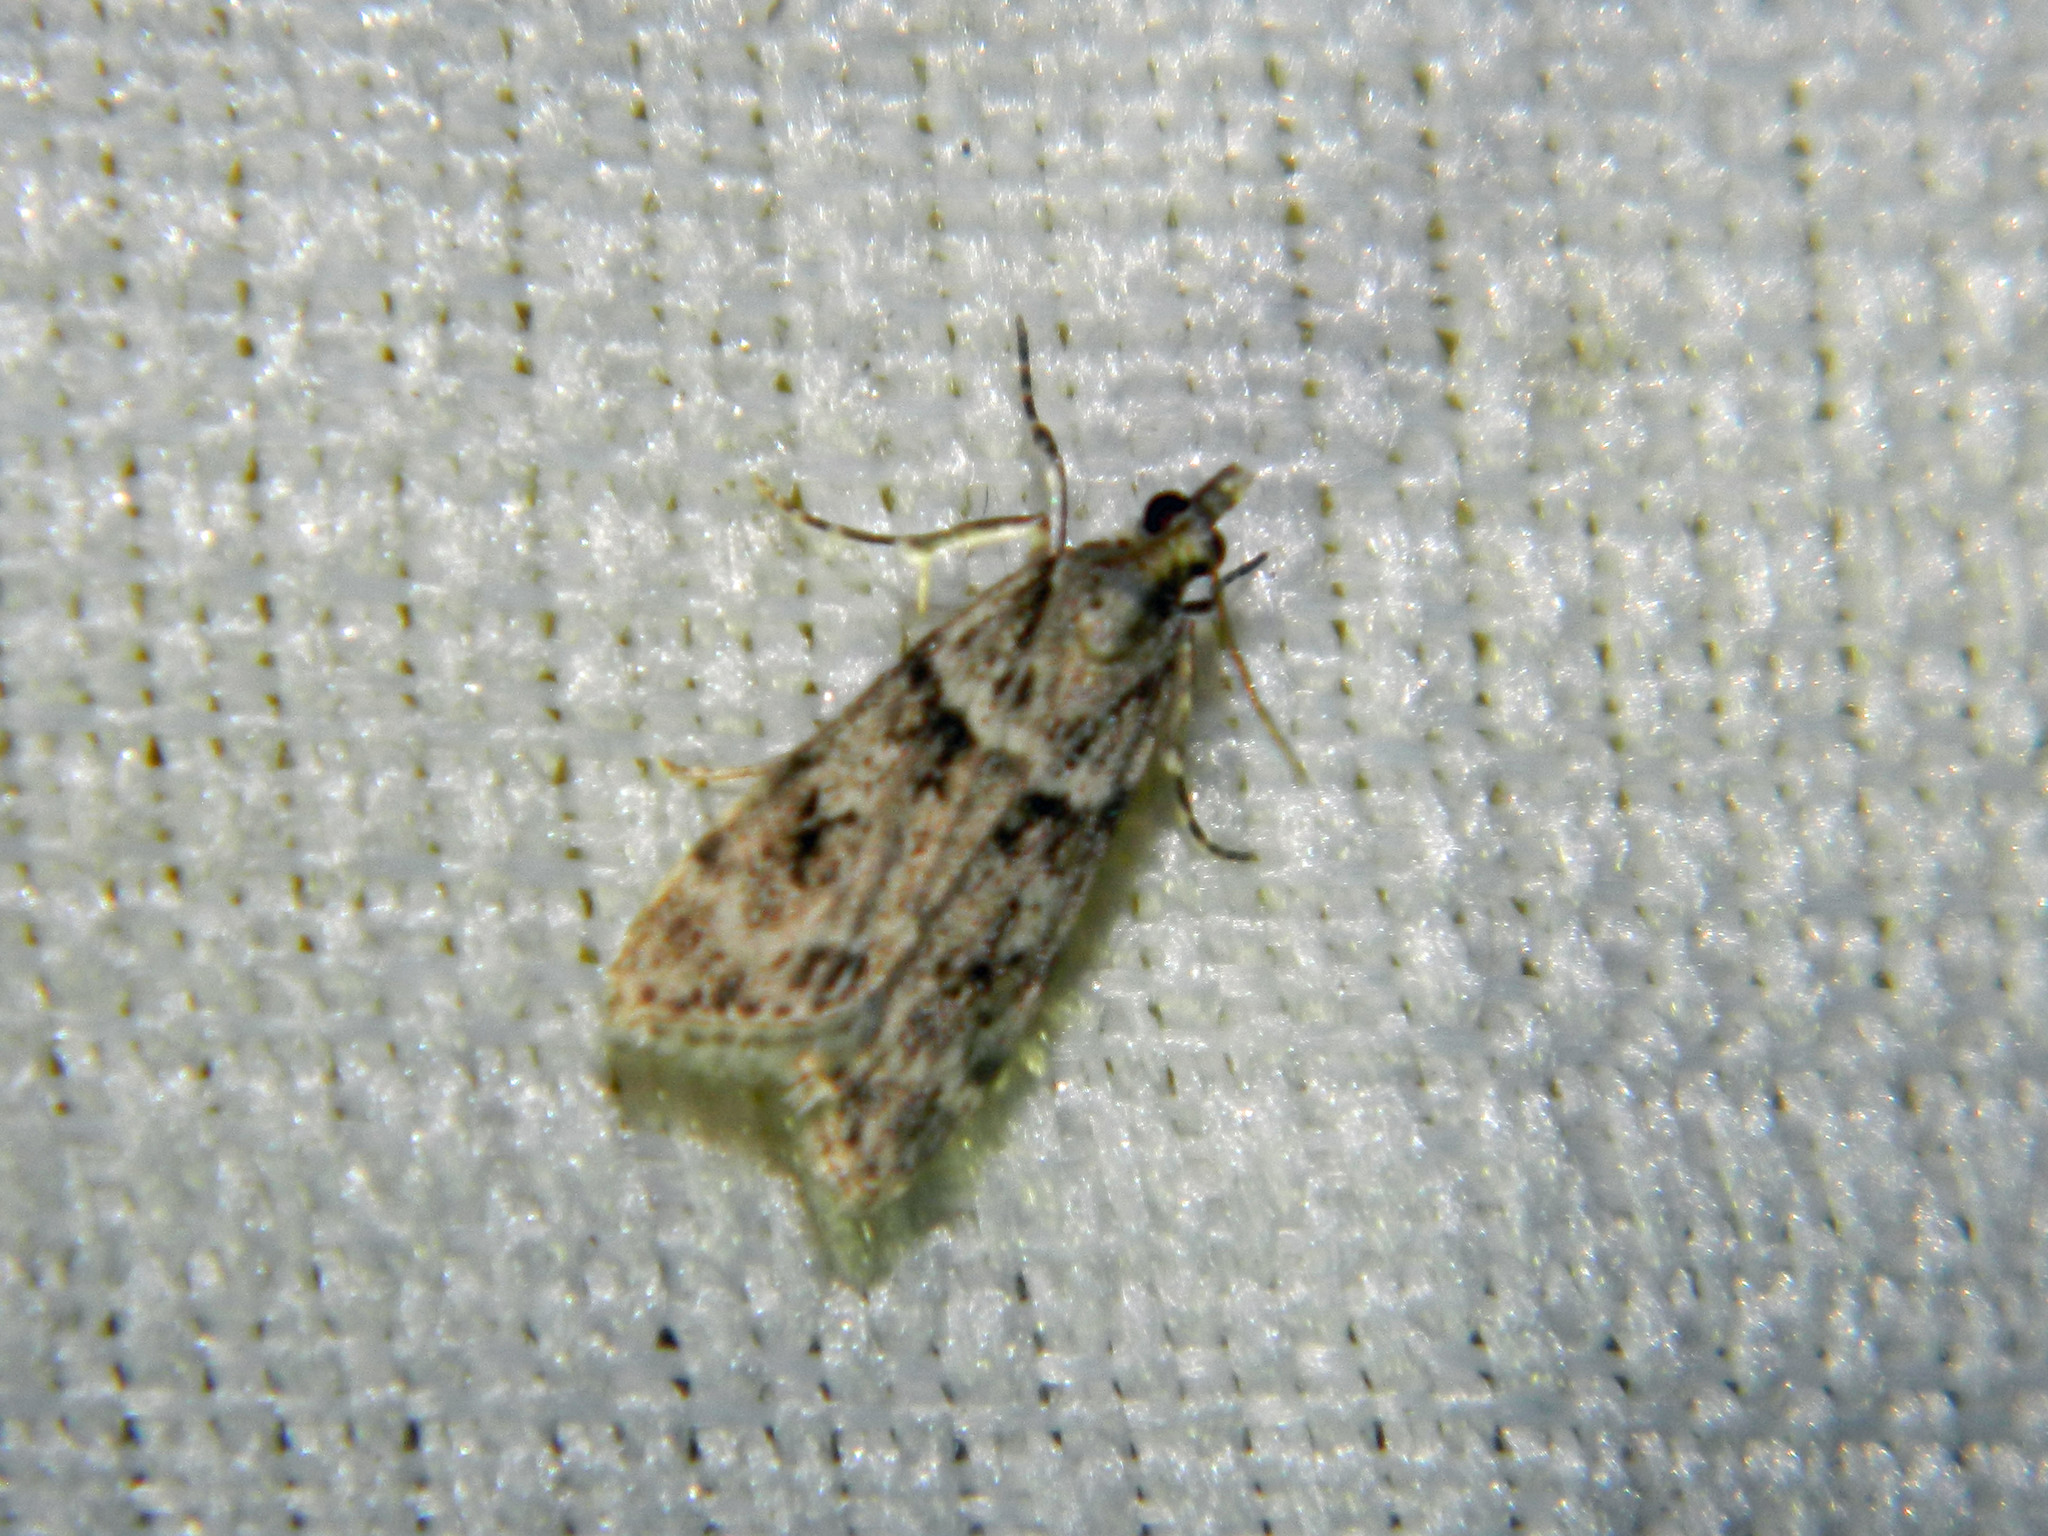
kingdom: Animalia
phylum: Arthropoda
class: Insecta
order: Lepidoptera
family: Crambidae
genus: Scoparia
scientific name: Scoparia biplagialis
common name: Double-striped scoparia moth
